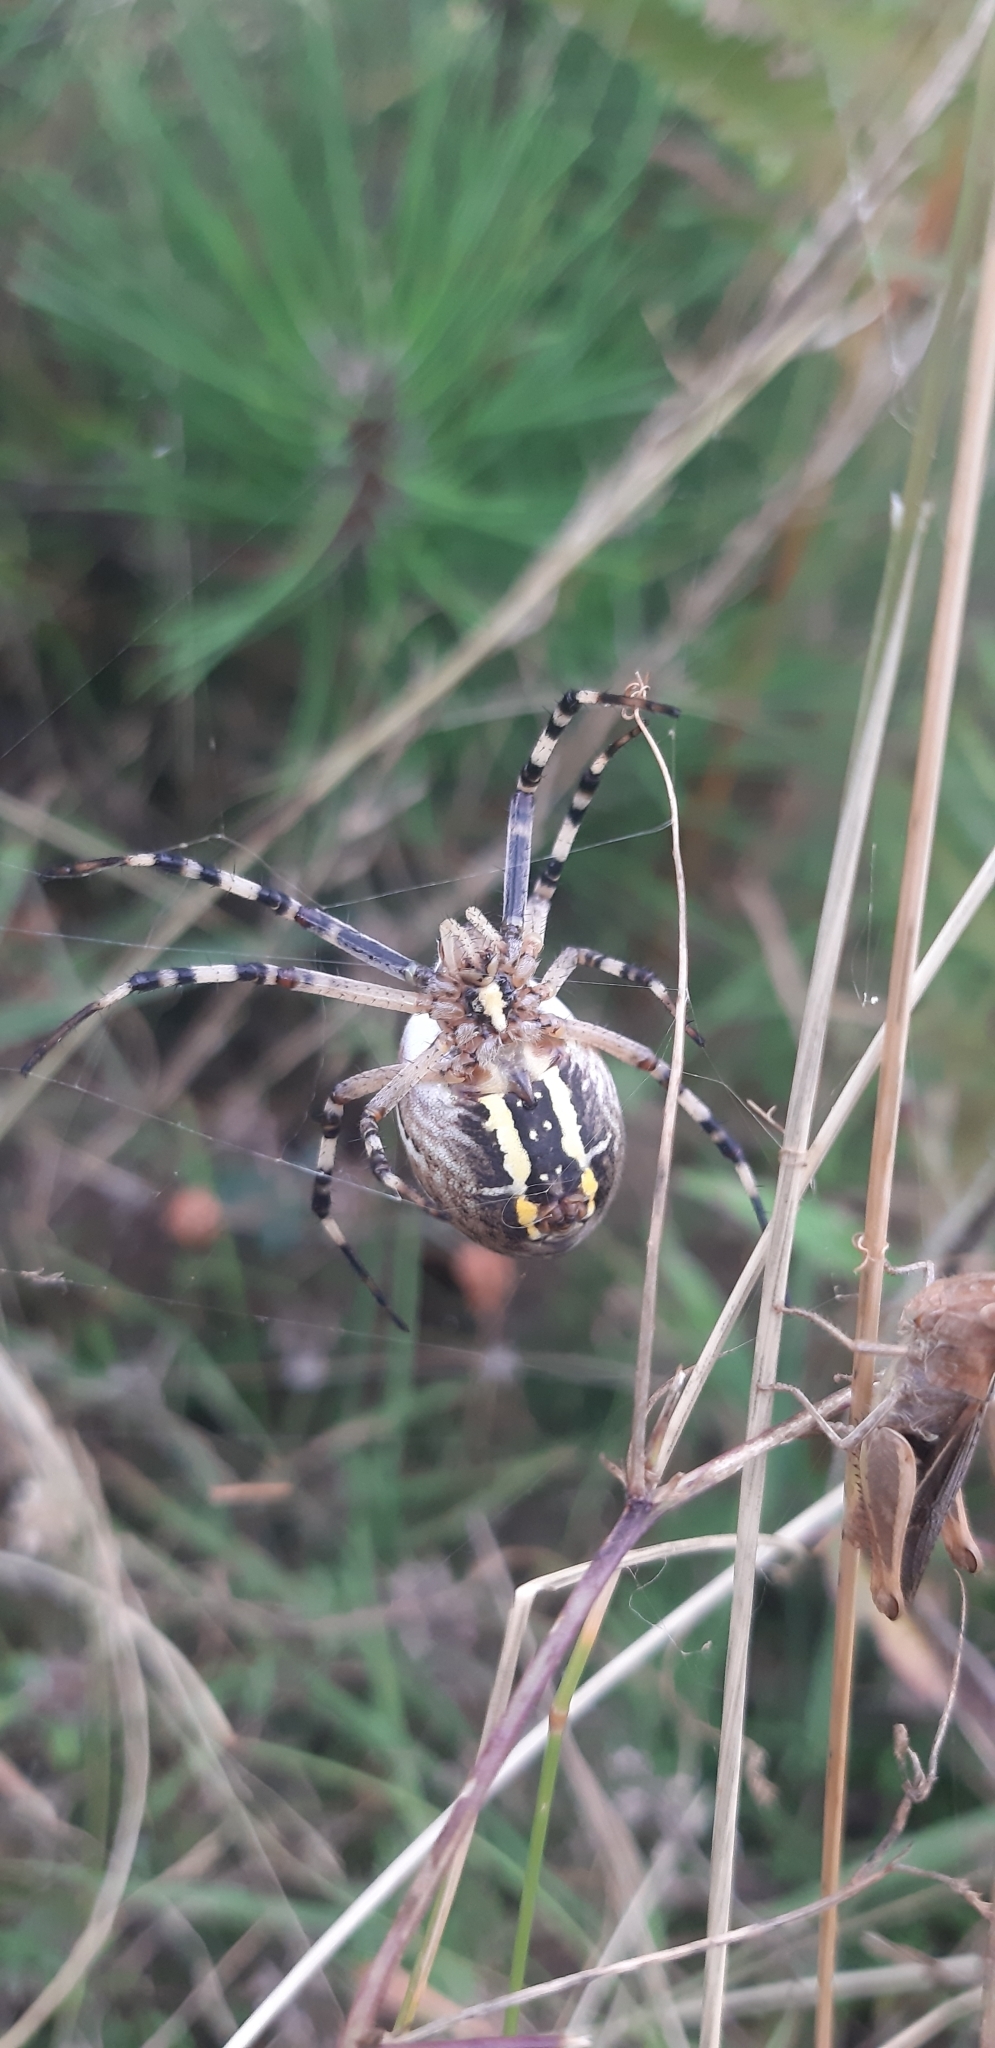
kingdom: Animalia
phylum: Arthropoda
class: Arachnida
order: Araneae
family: Araneidae
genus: Argiope
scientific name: Argiope bruennichi
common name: Wasp spider
